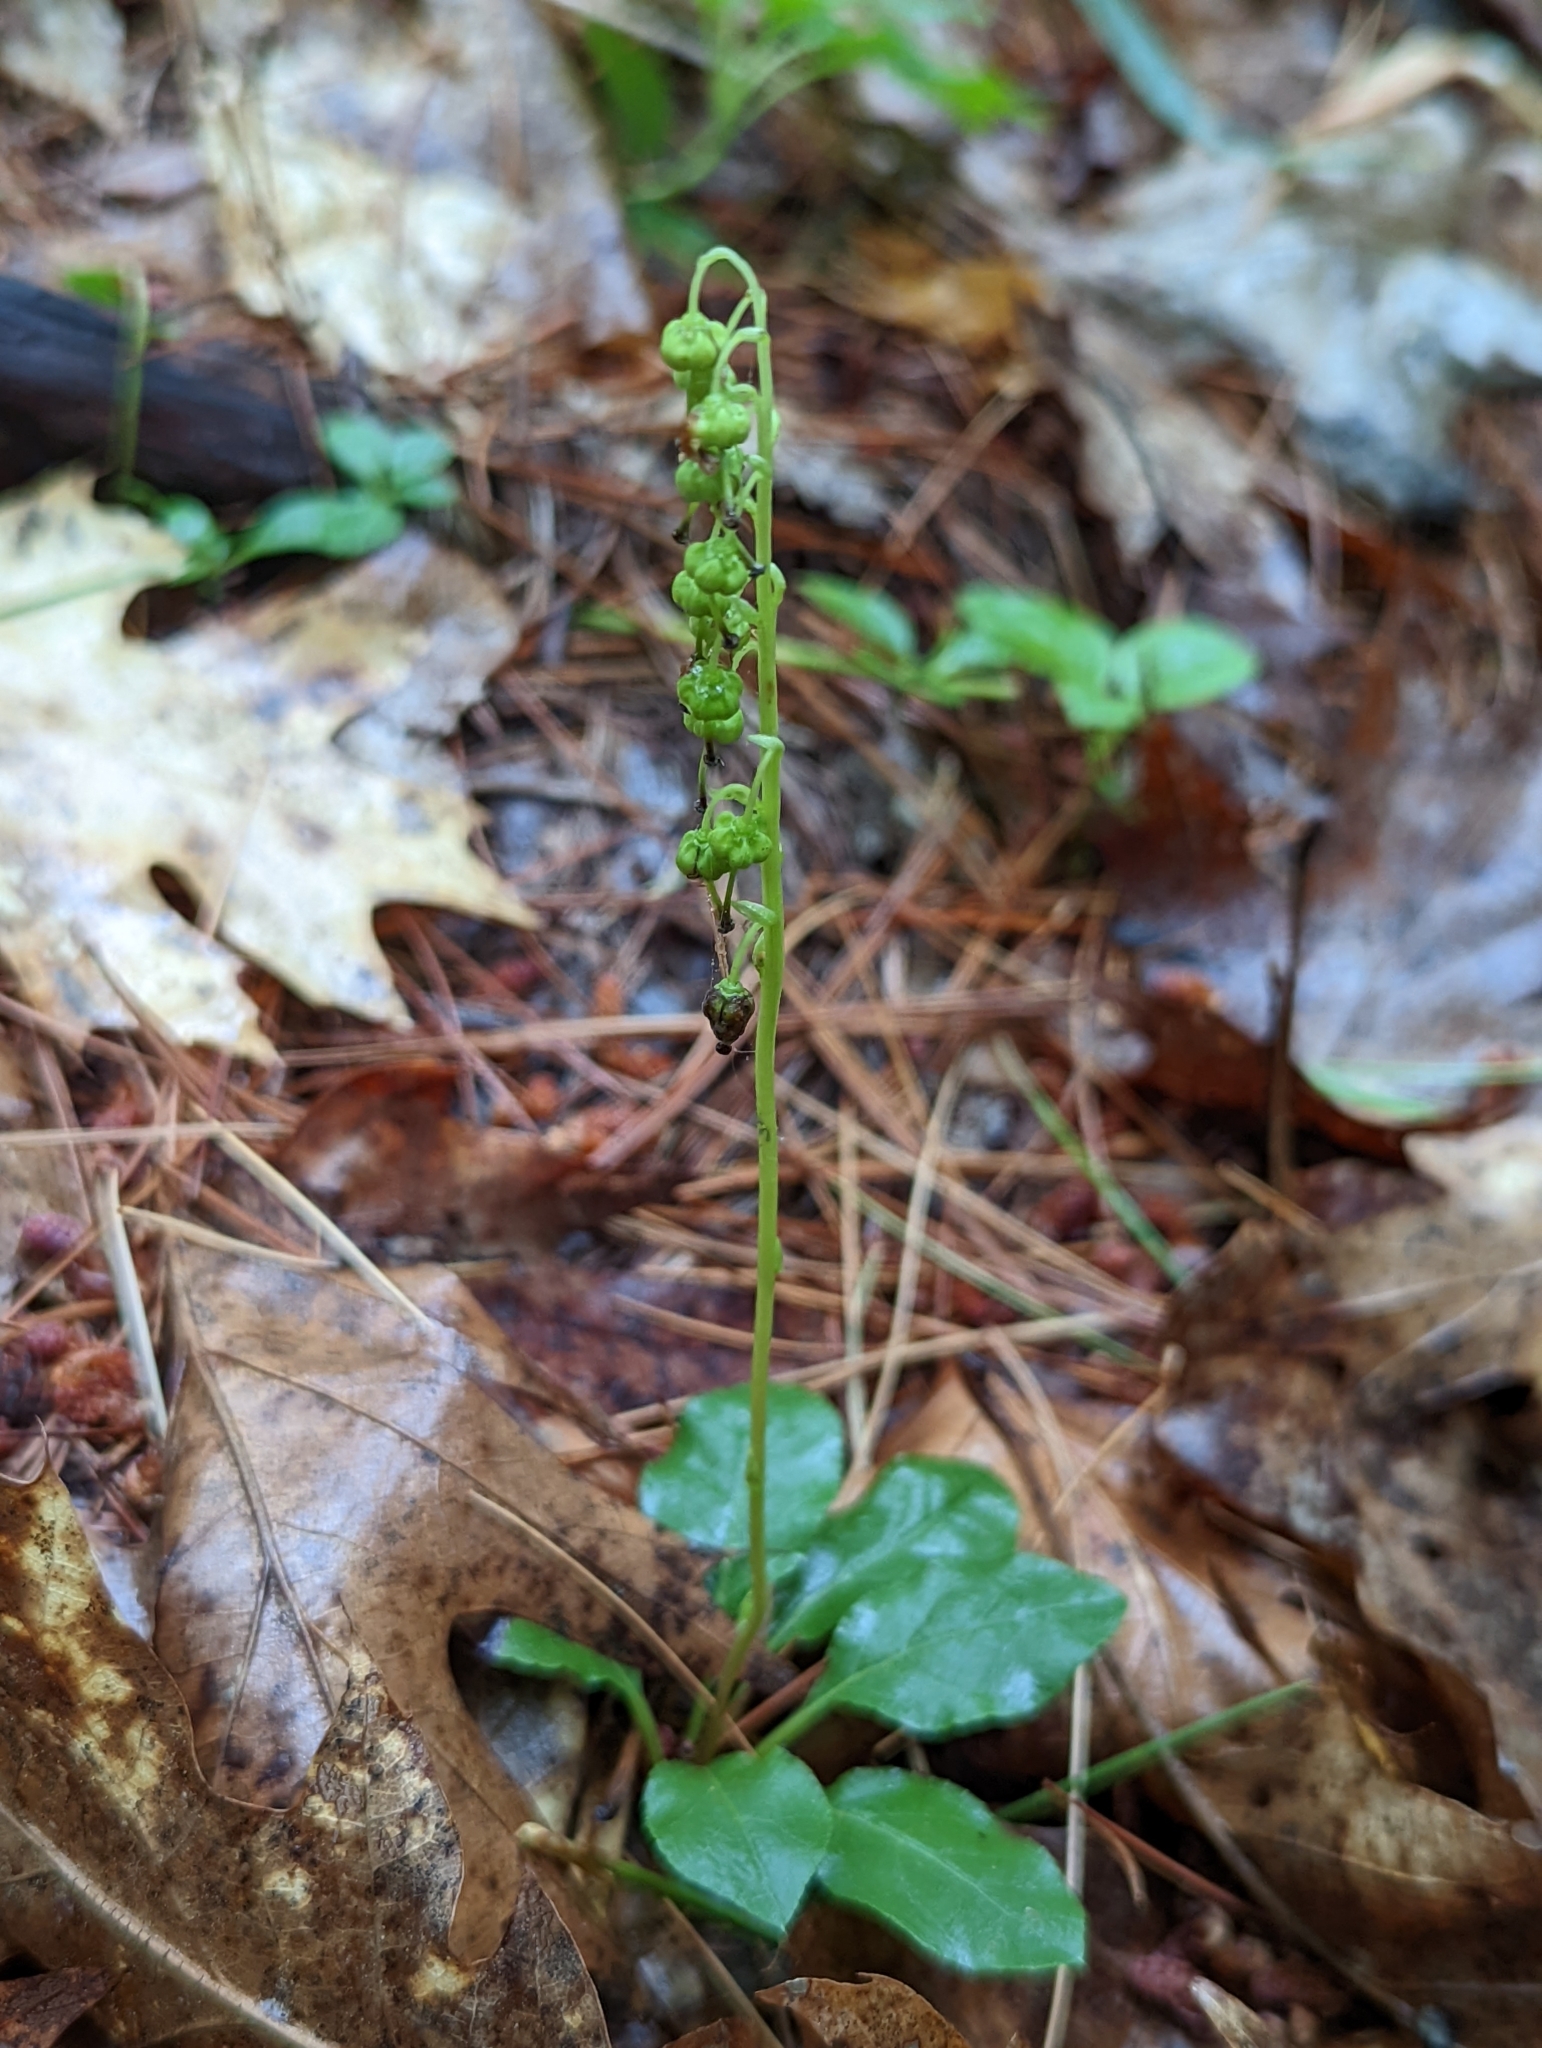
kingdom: Plantae
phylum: Tracheophyta
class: Magnoliopsida
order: Ericales
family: Ericaceae
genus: Orthilia
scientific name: Orthilia secunda
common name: One-sided orthilia
